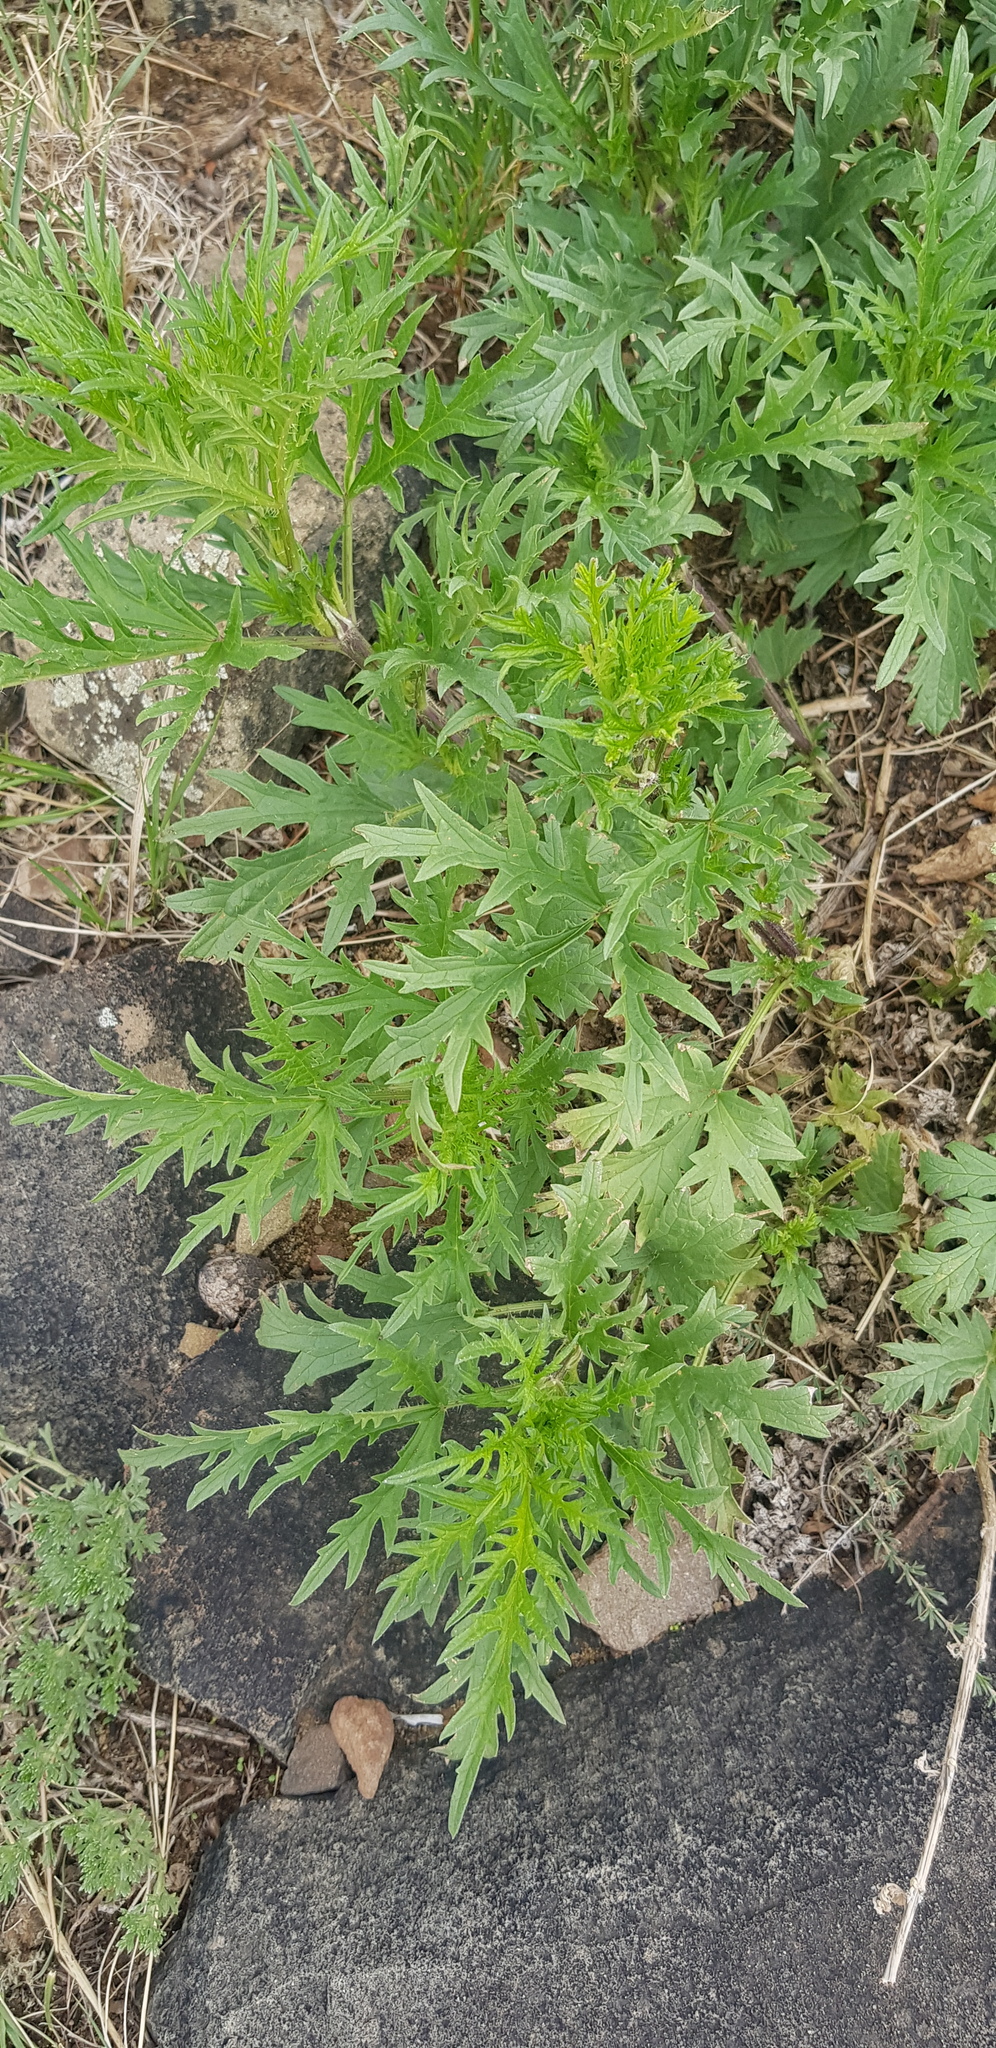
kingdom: Plantae
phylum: Tracheophyta
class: Magnoliopsida
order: Rosales
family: Urticaceae
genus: Urtica
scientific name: Urtica cannabina
